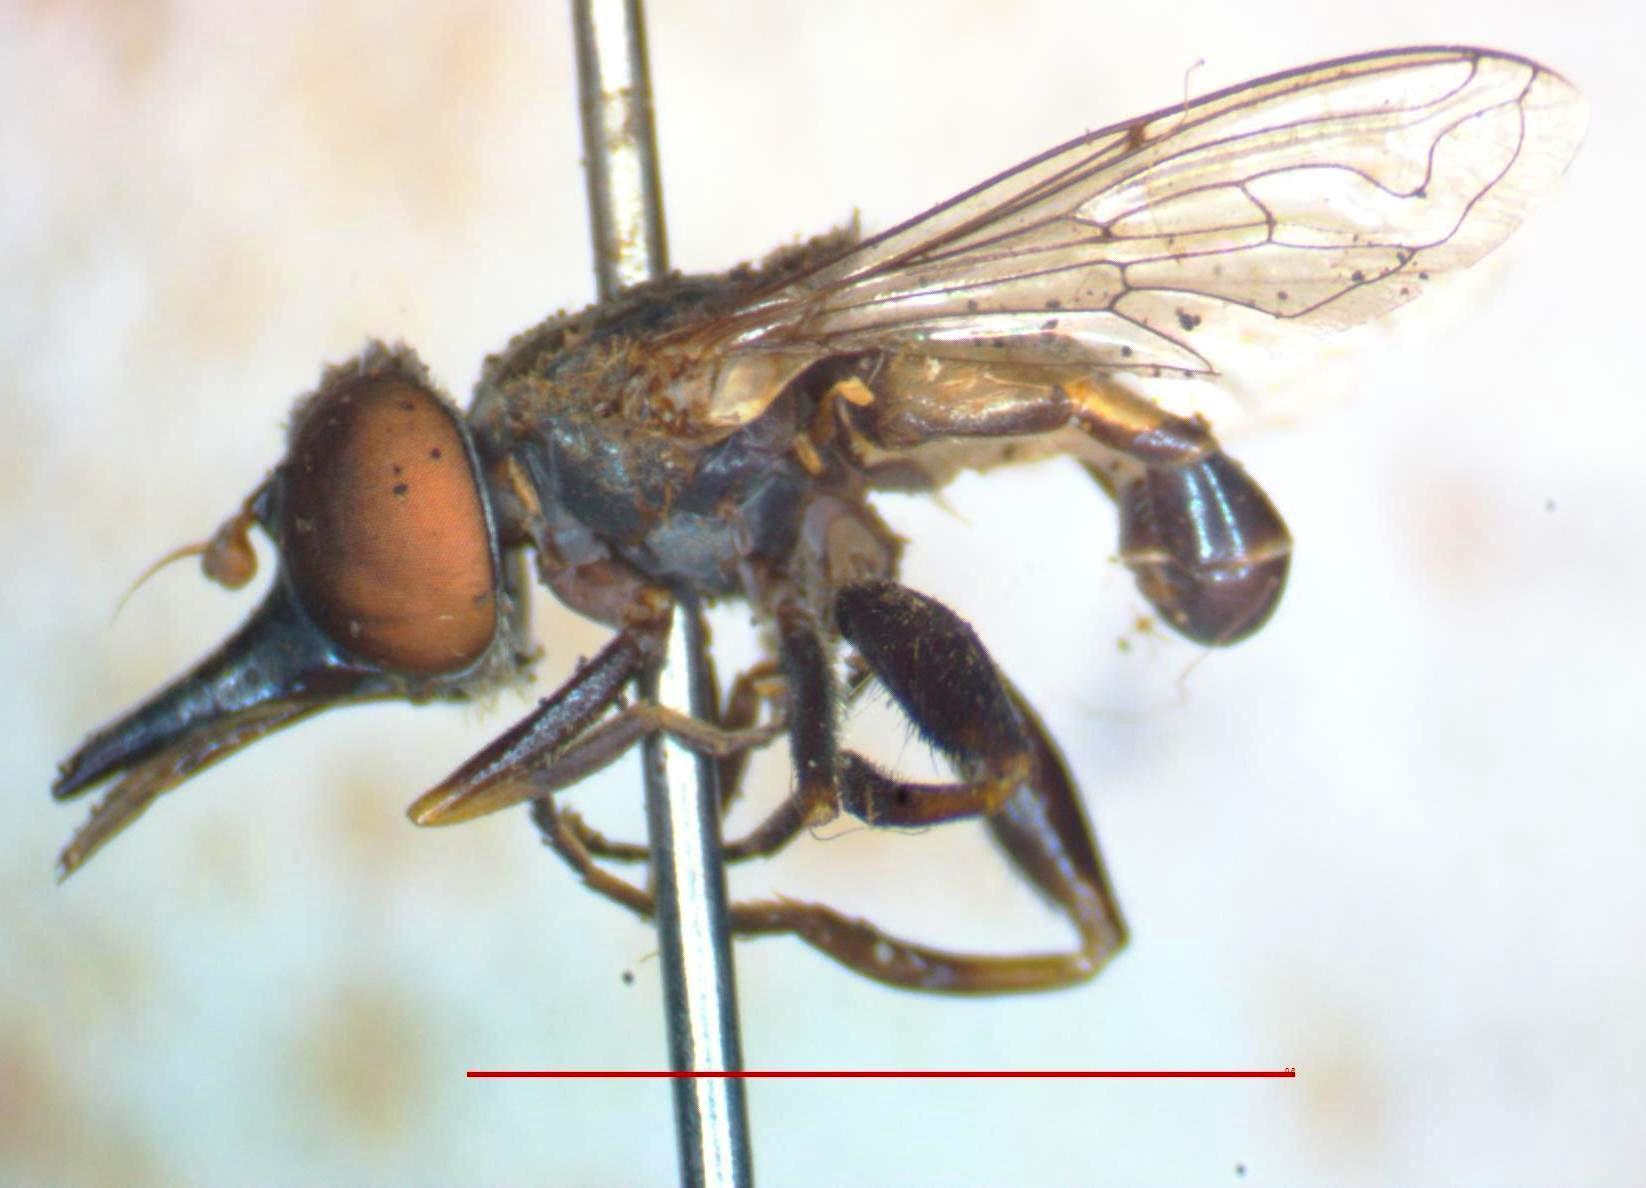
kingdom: Animalia
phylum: Arthropoda
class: Insecta
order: Diptera
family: Syrphidae
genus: Lycastrirhyncha
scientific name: Lycastrirhyncha nitens
